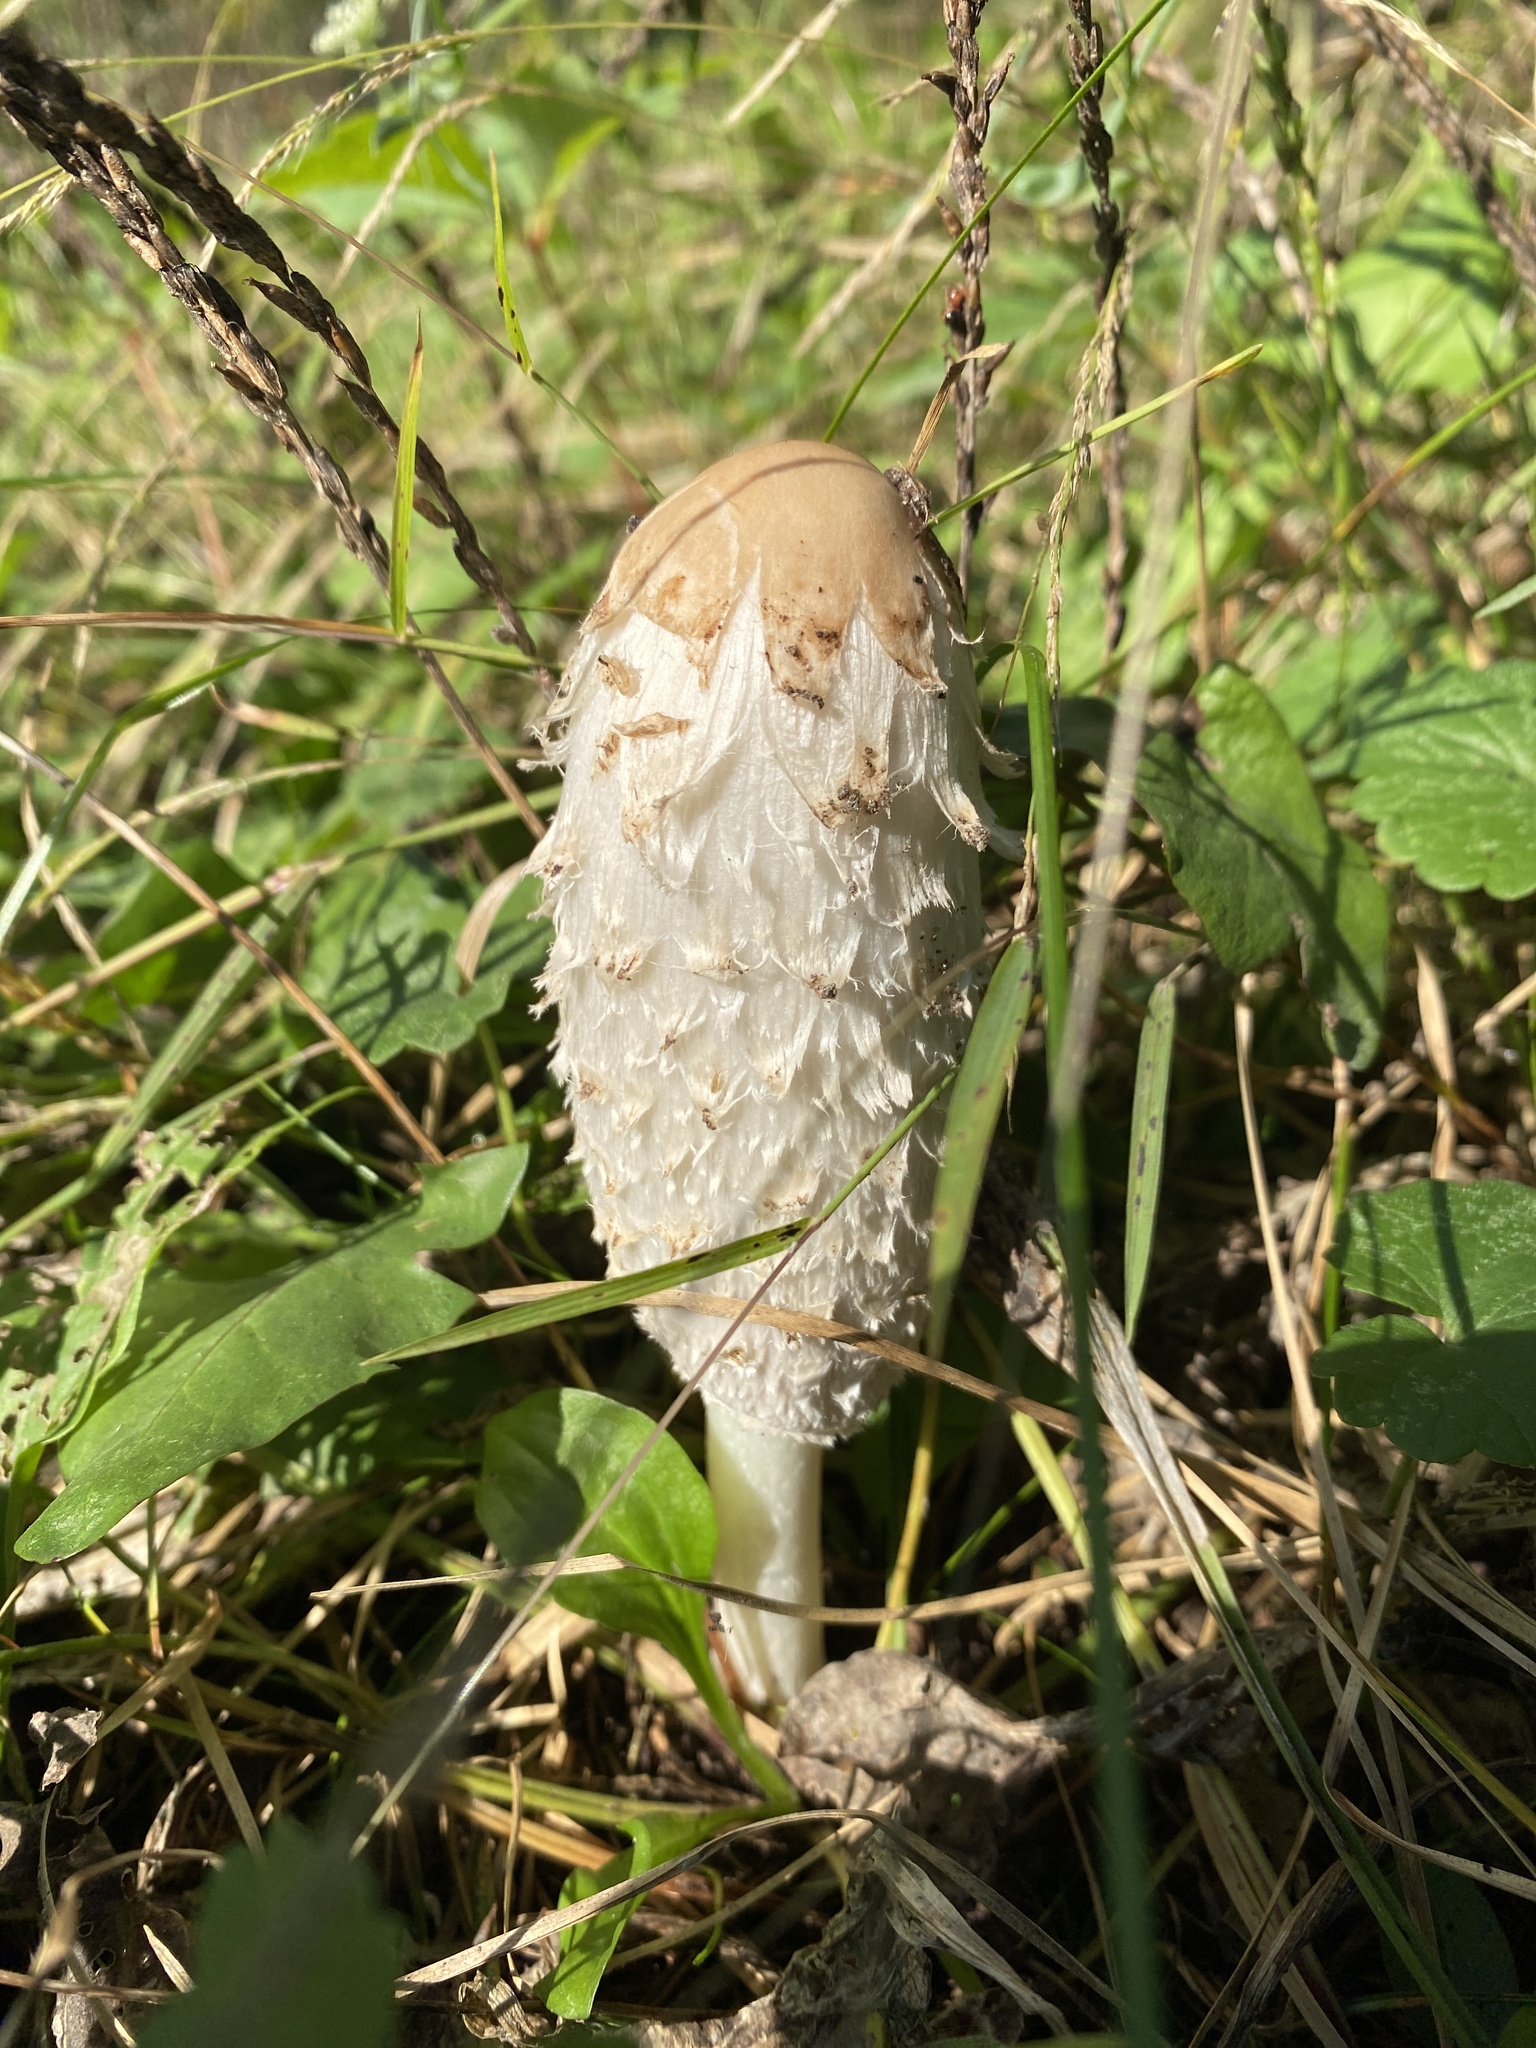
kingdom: Fungi
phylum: Basidiomycota
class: Agaricomycetes
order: Agaricales
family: Agaricaceae
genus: Coprinus
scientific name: Coprinus comatus
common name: Lawyer's wig
